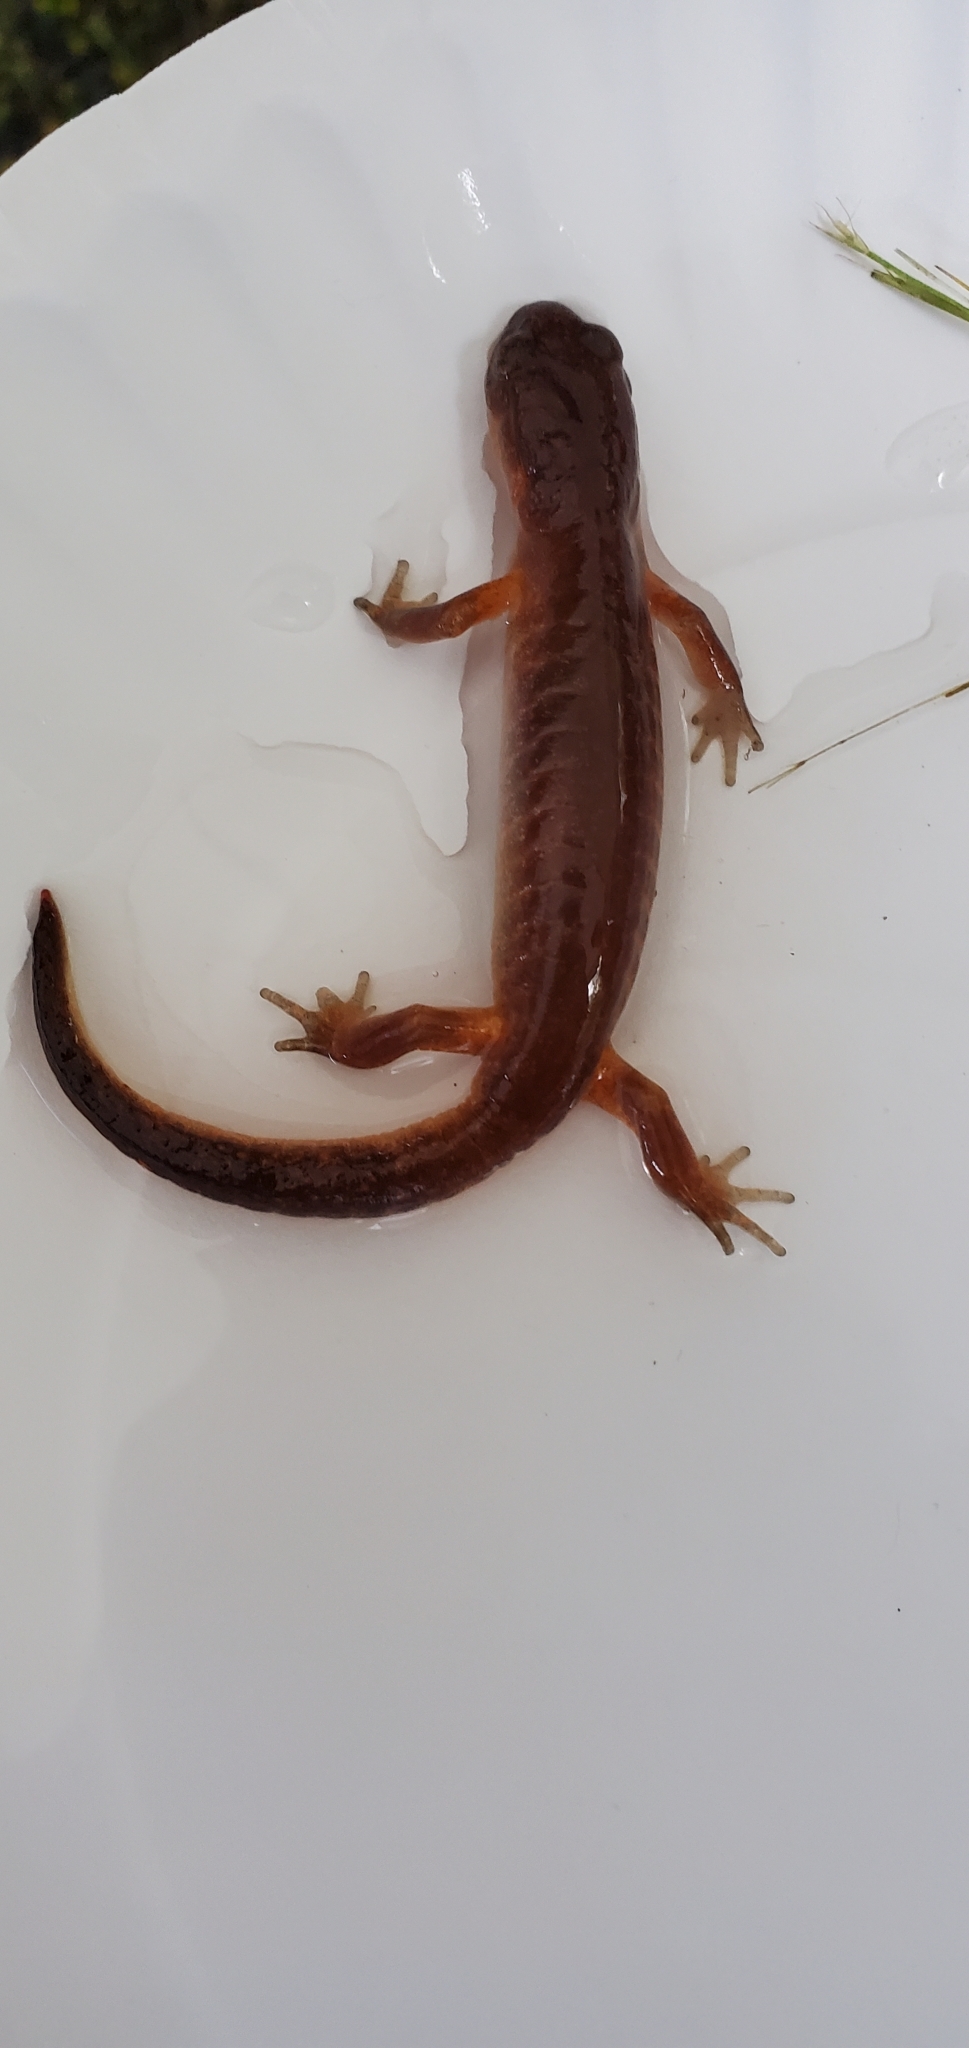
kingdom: Animalia
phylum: Chordata
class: Amphibia
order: Caudata
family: Plethodontidae
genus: Ensatina
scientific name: Ensatina eschscholtzii
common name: Ensatina
